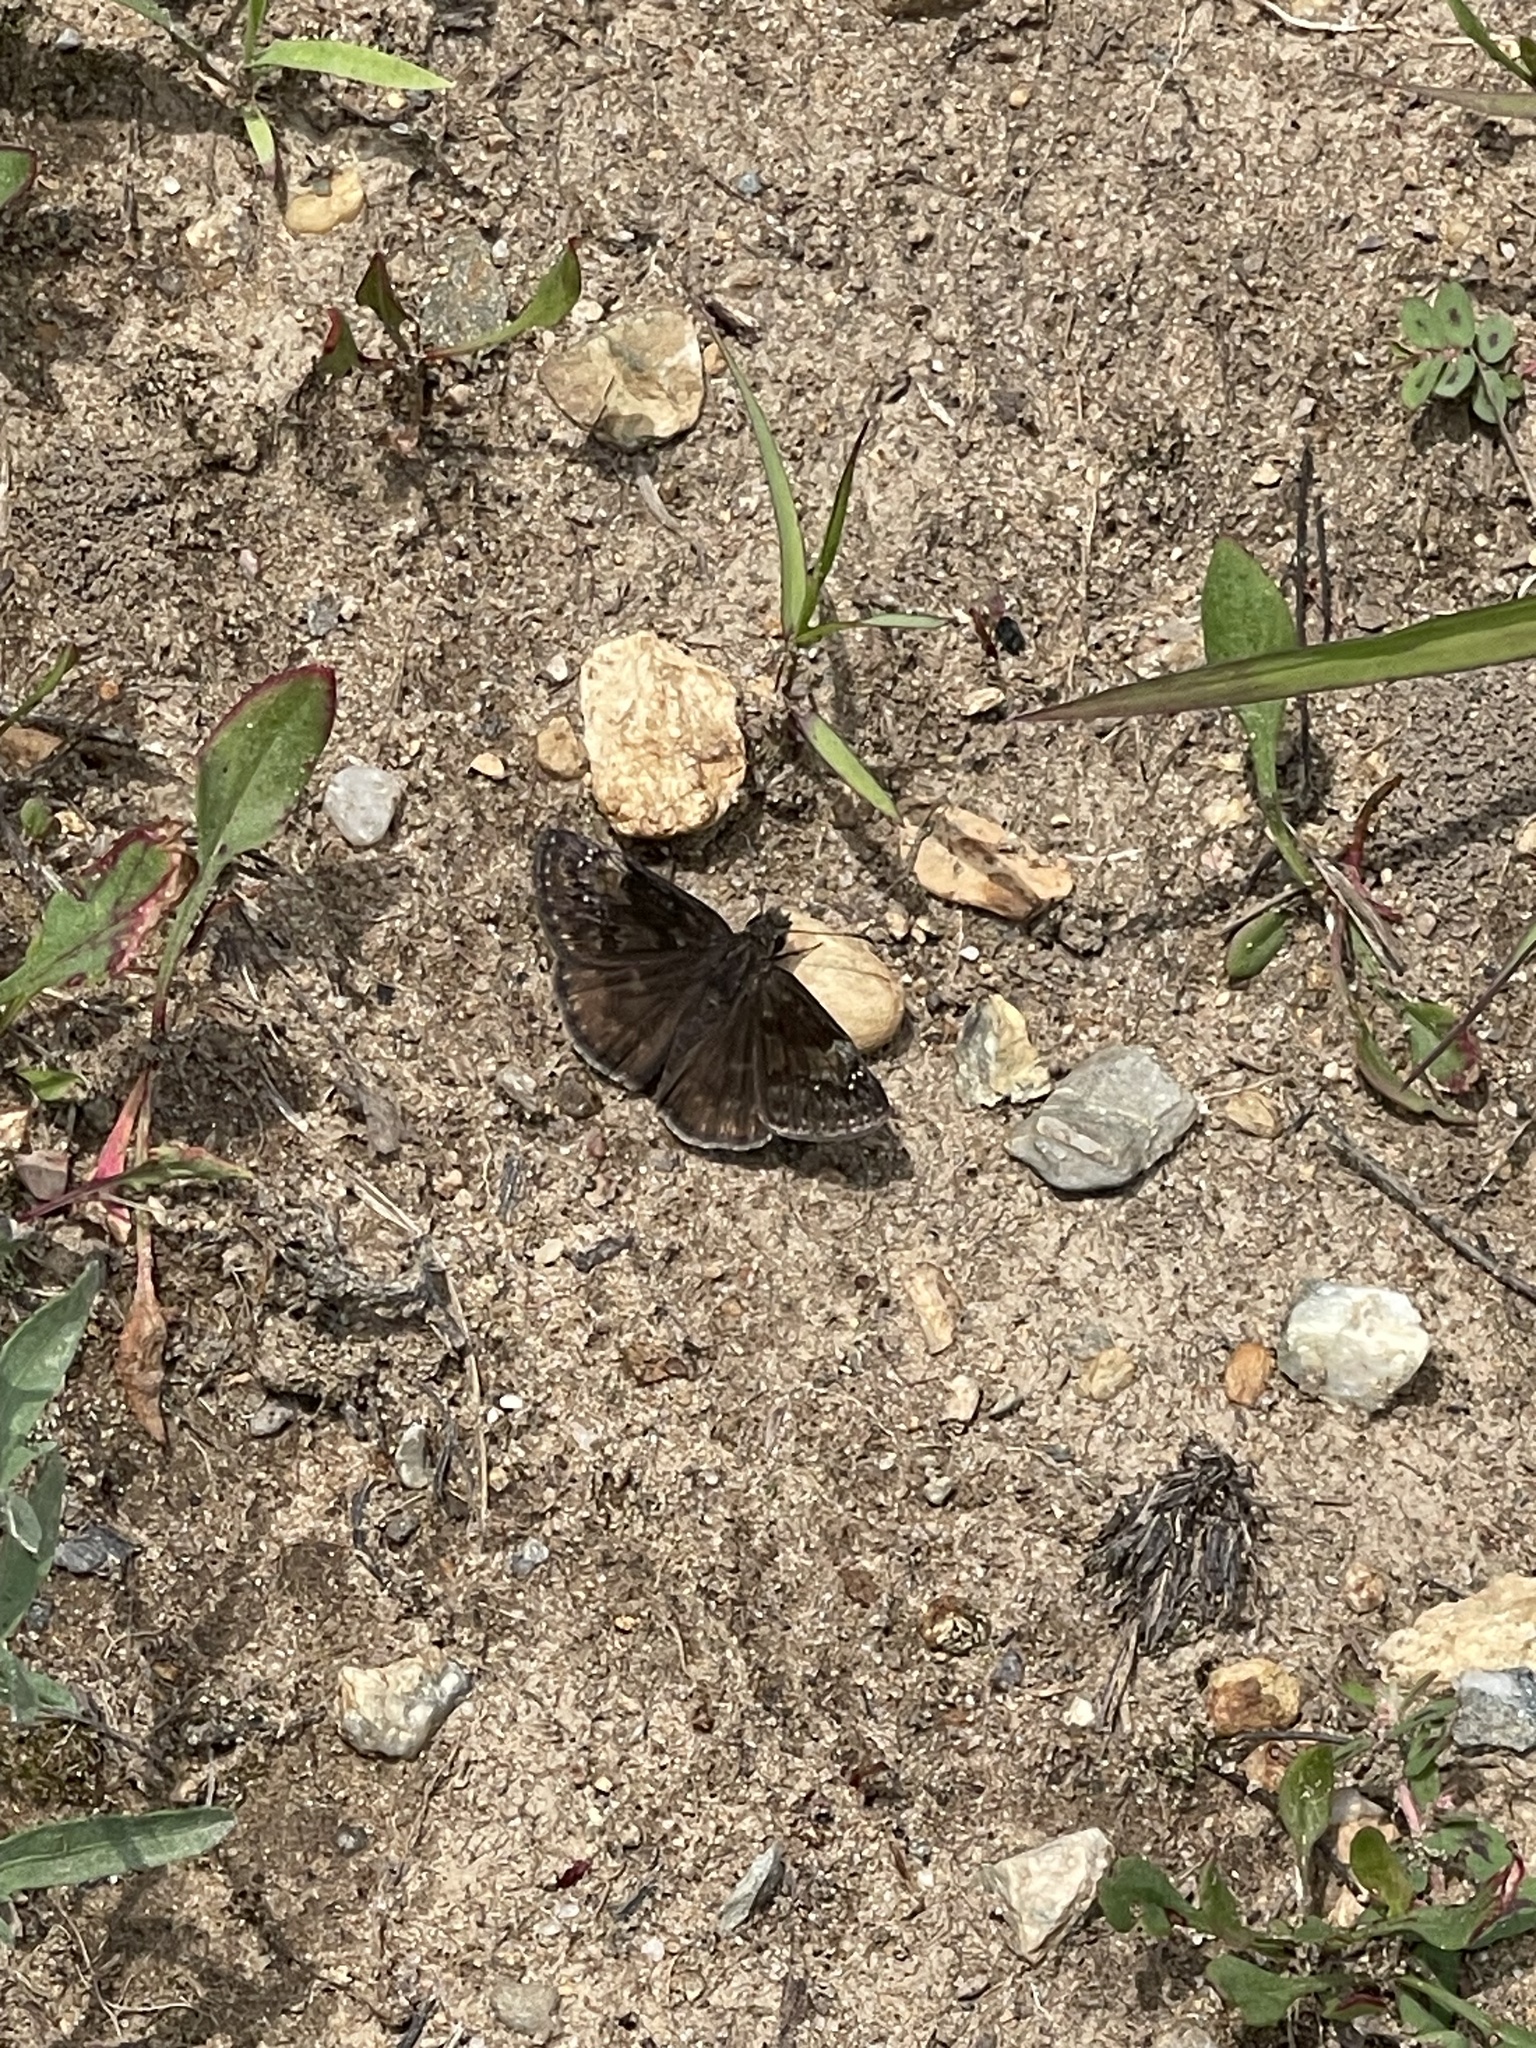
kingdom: Animalia
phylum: Arthropoda
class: Insecta
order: Lepidoptera
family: Hesperiidae
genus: Erynnis
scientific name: Erynnis baptisiae
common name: Wild indigo duskywing
